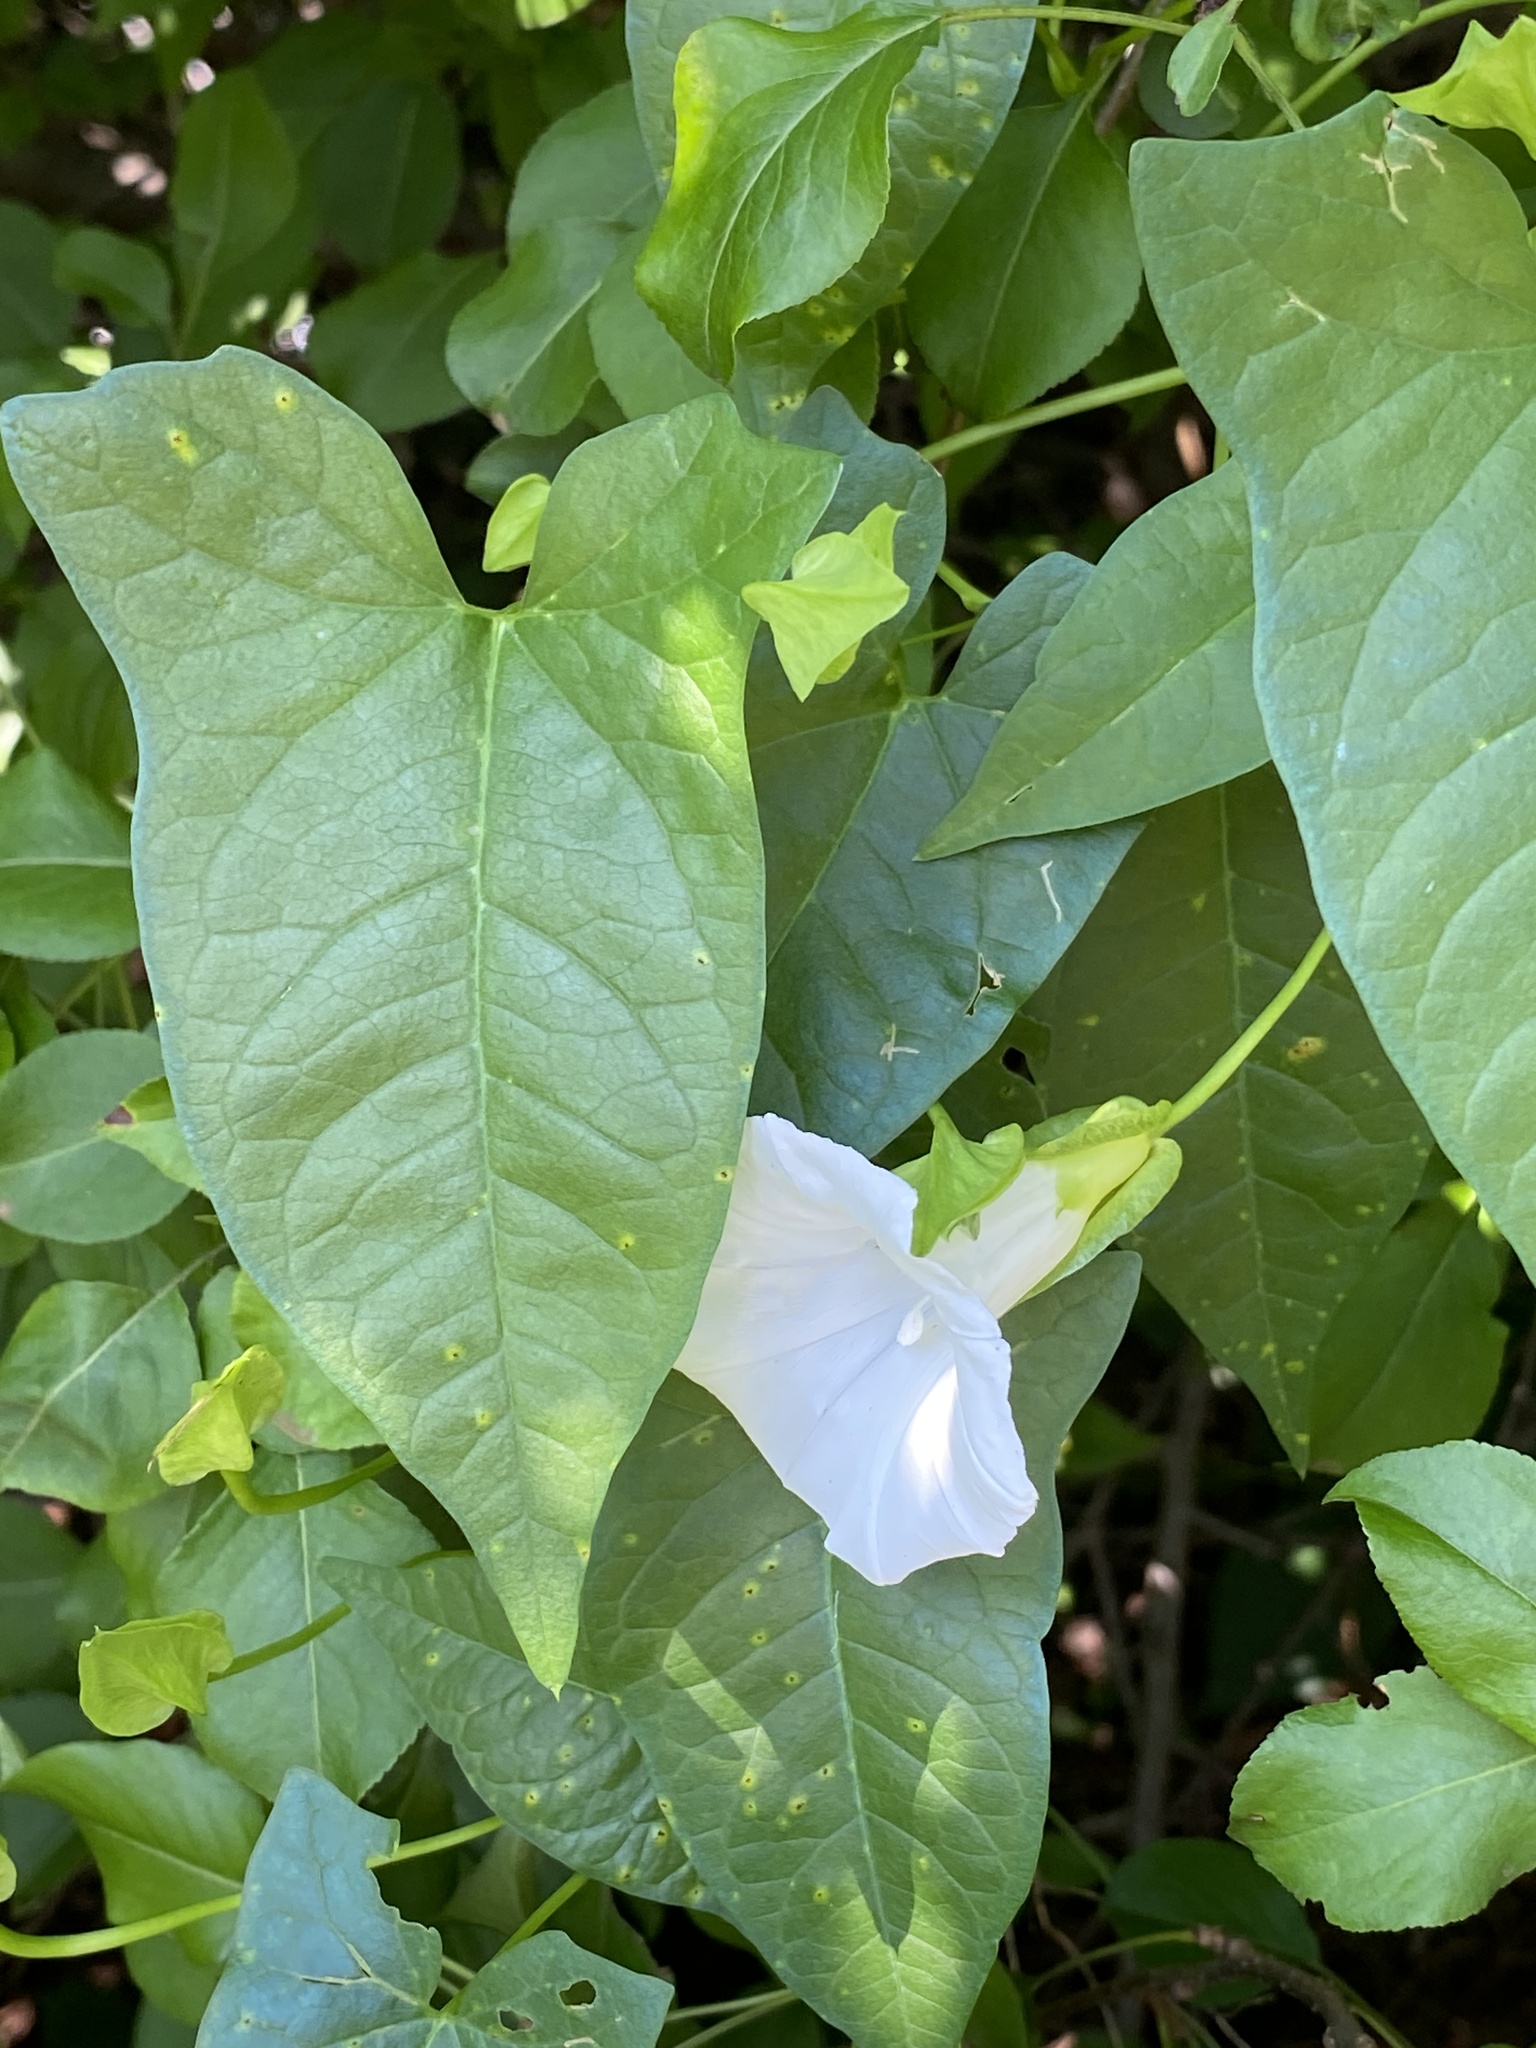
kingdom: Plantae
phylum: Tracheophyta
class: Magnoliopsida
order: Solanales
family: Convolvulaceae
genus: Calystegia
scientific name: Calystegia sepium
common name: Hedge bindweed
